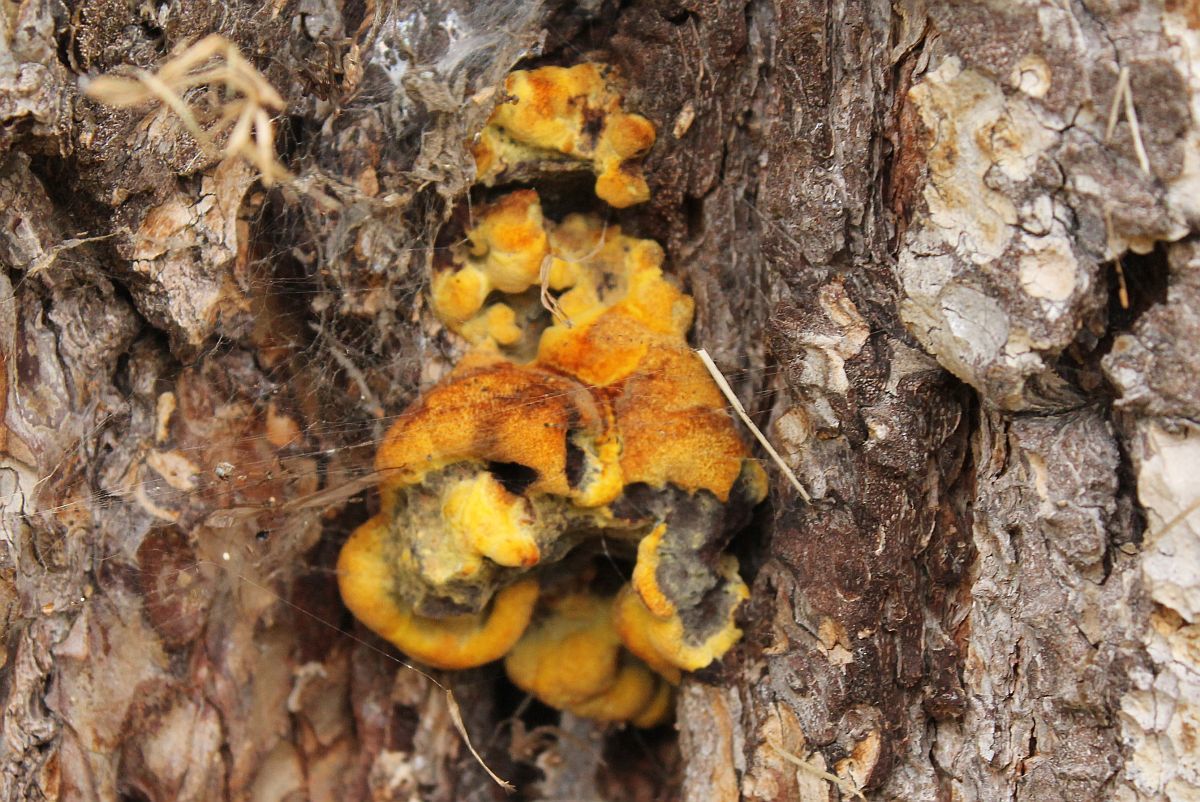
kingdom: Fungi
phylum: Basidiomycota
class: Agaricomycetes
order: Polyporales
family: Laetiporaceae
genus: Phaeolus
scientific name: Phaeolus schweinitzii
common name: Dyer's mazegill
